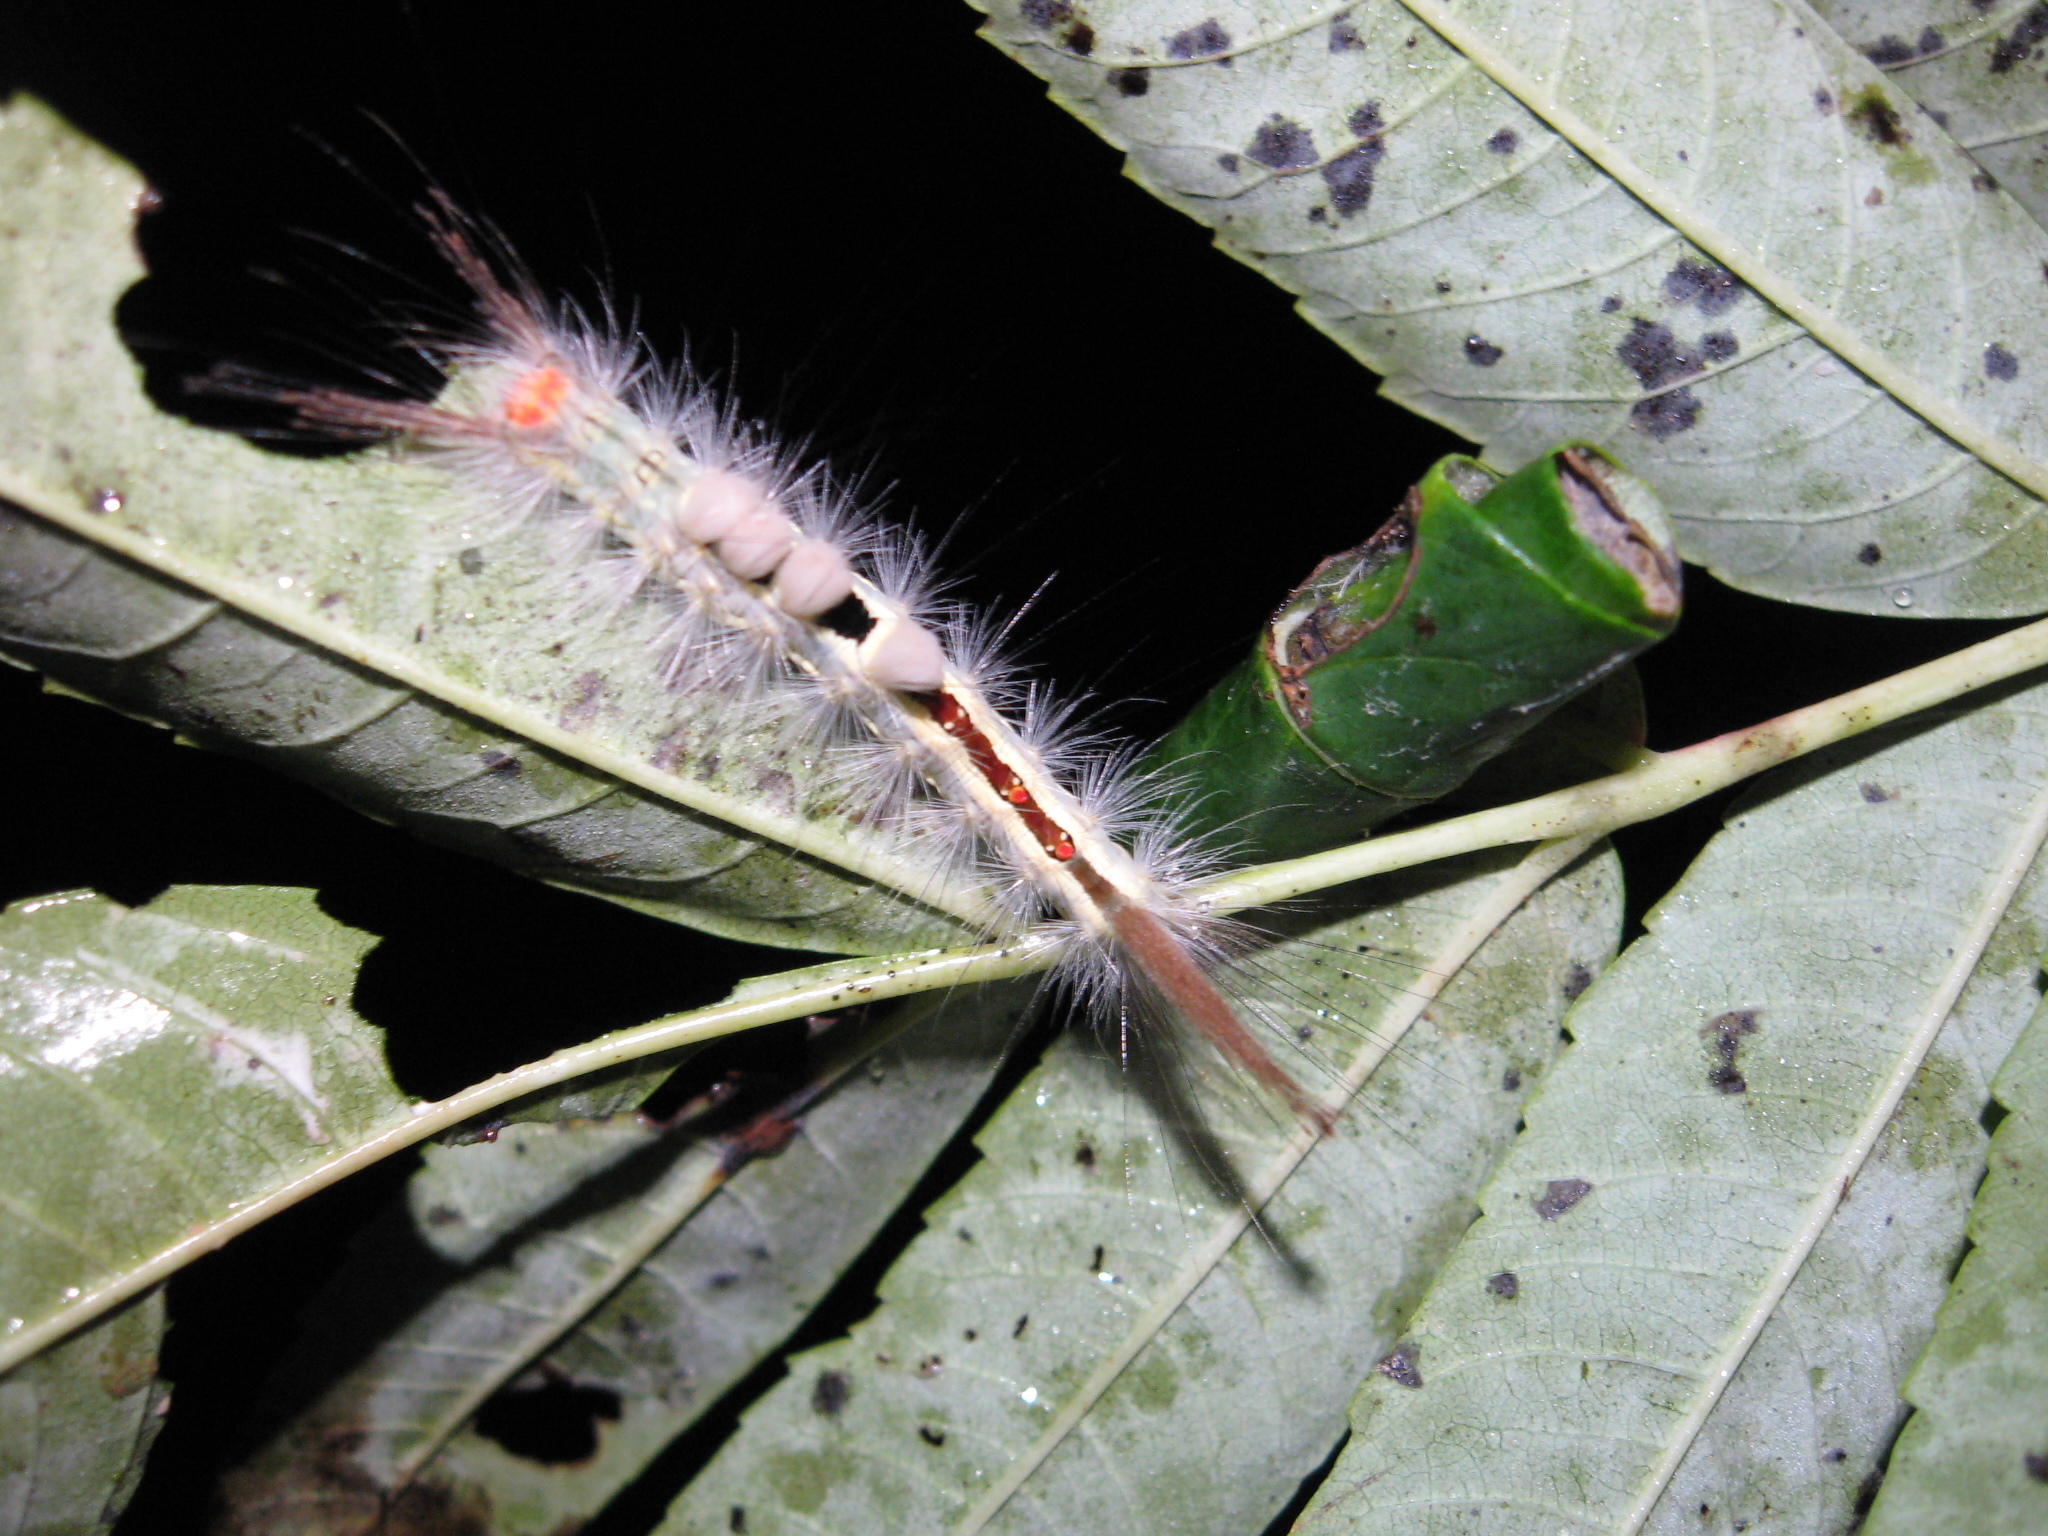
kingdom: Animalia
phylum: Arthropoda
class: Insecta
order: Lepidoptera
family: Erebidae
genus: Orgyia
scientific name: Orgyia leucostigma
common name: White-marked tussock moth
